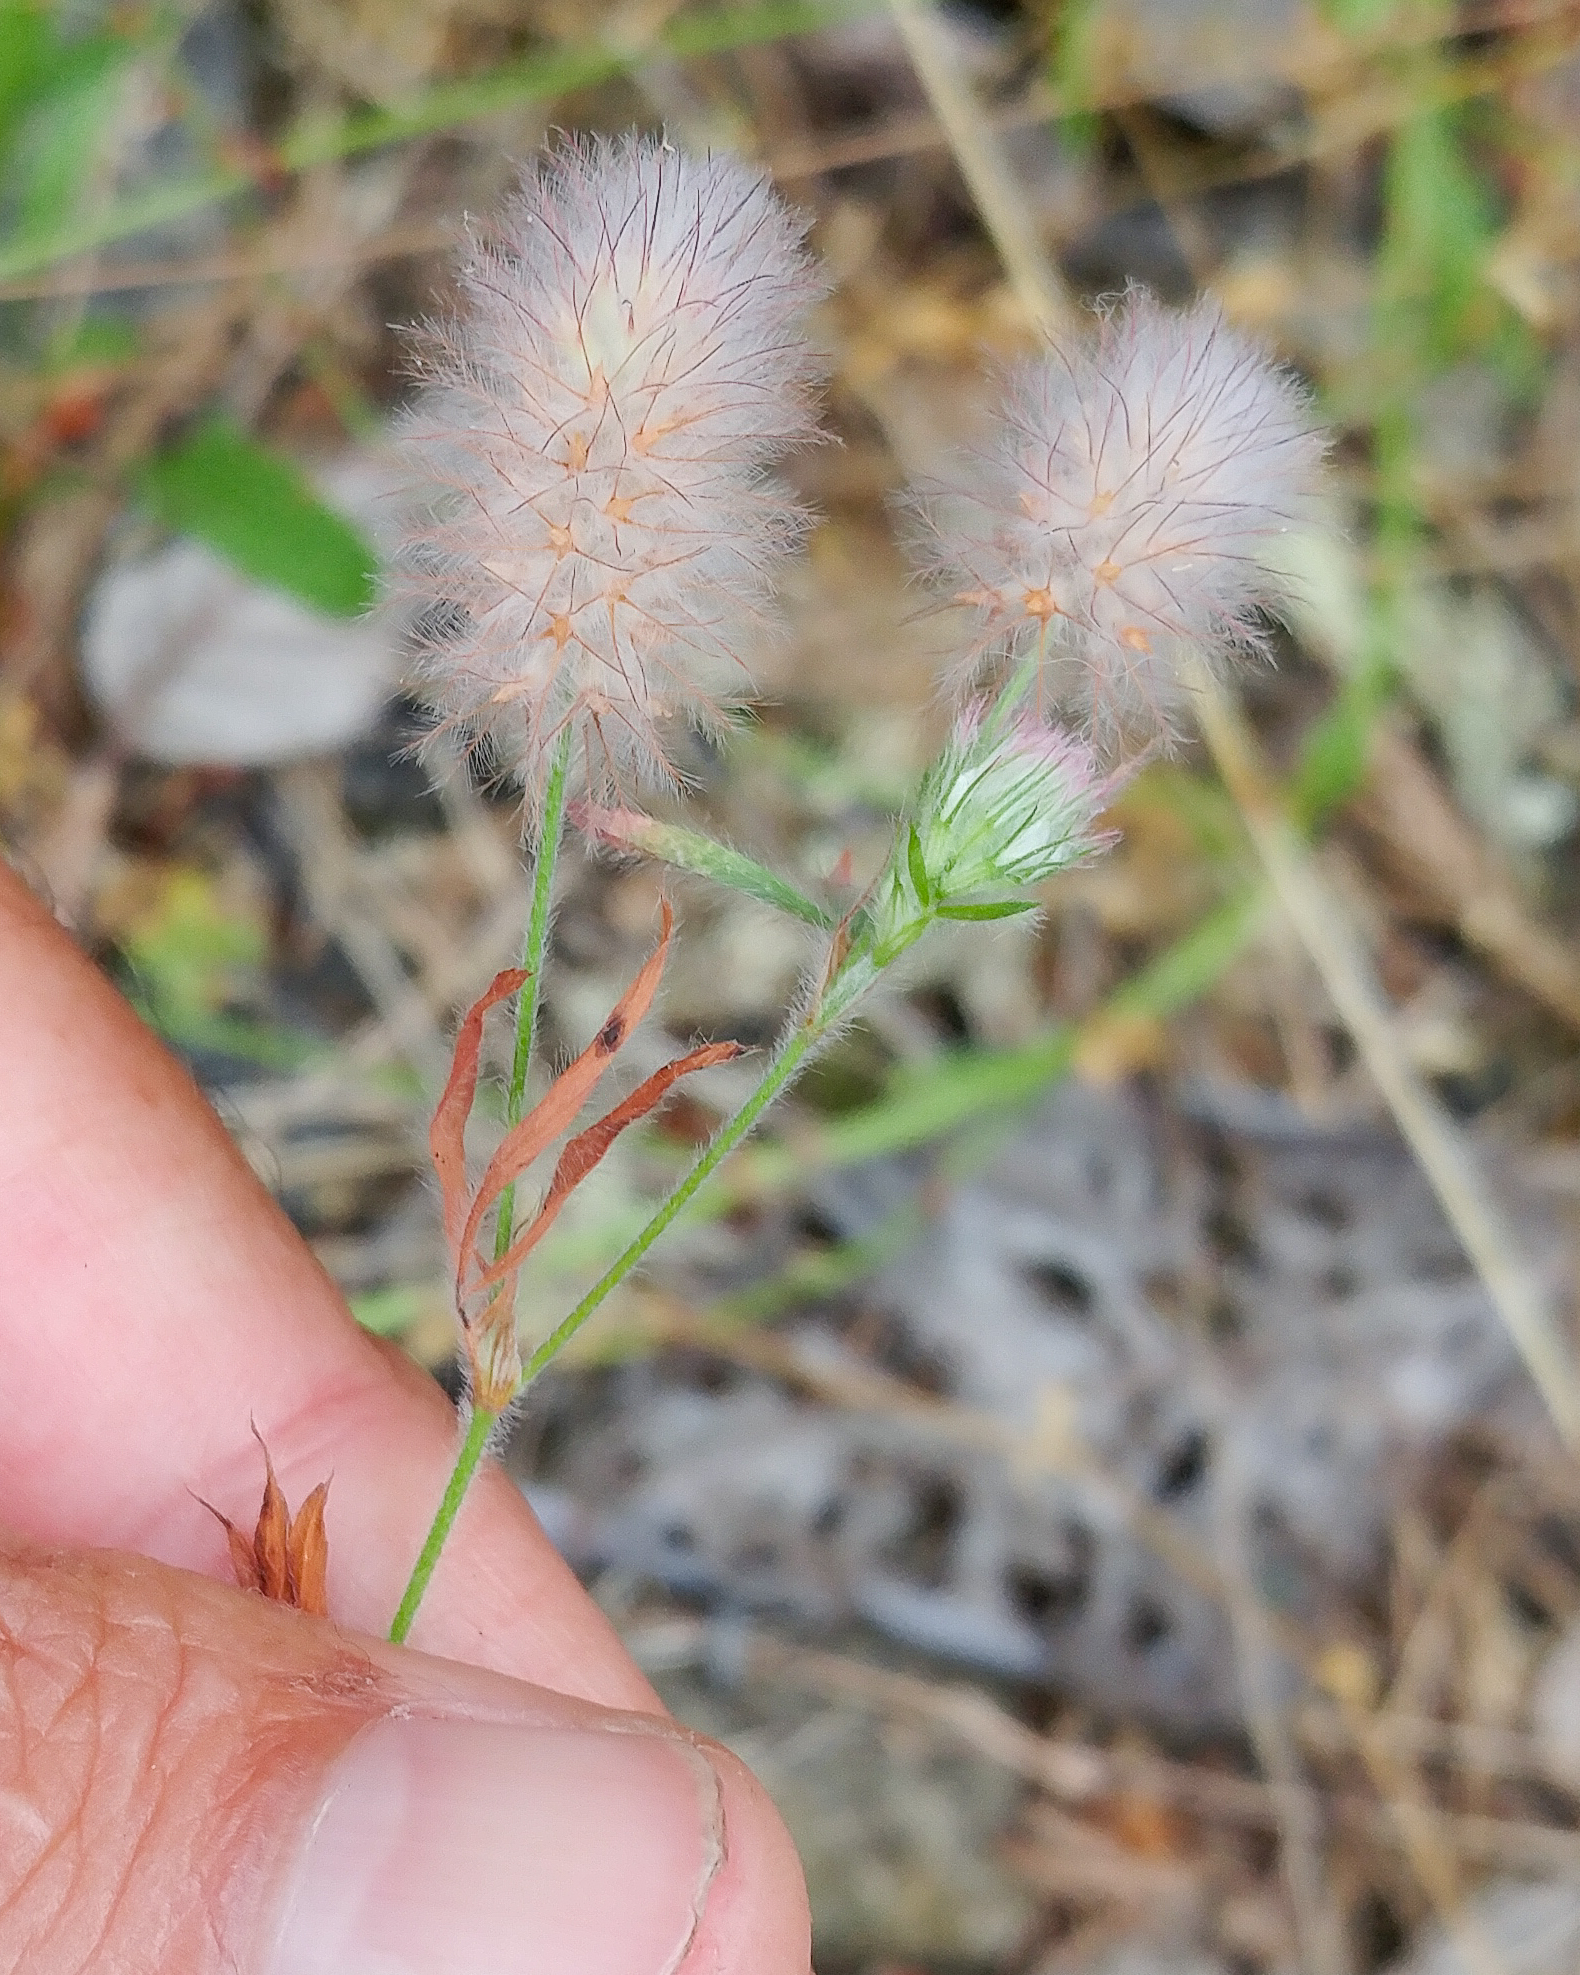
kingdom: Plantae
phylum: Tracheophyta
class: Magnoliopsida
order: Fabales
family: Fabaceae
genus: Trifolium
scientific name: Trifolium arvense
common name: Hare's-foot clover
